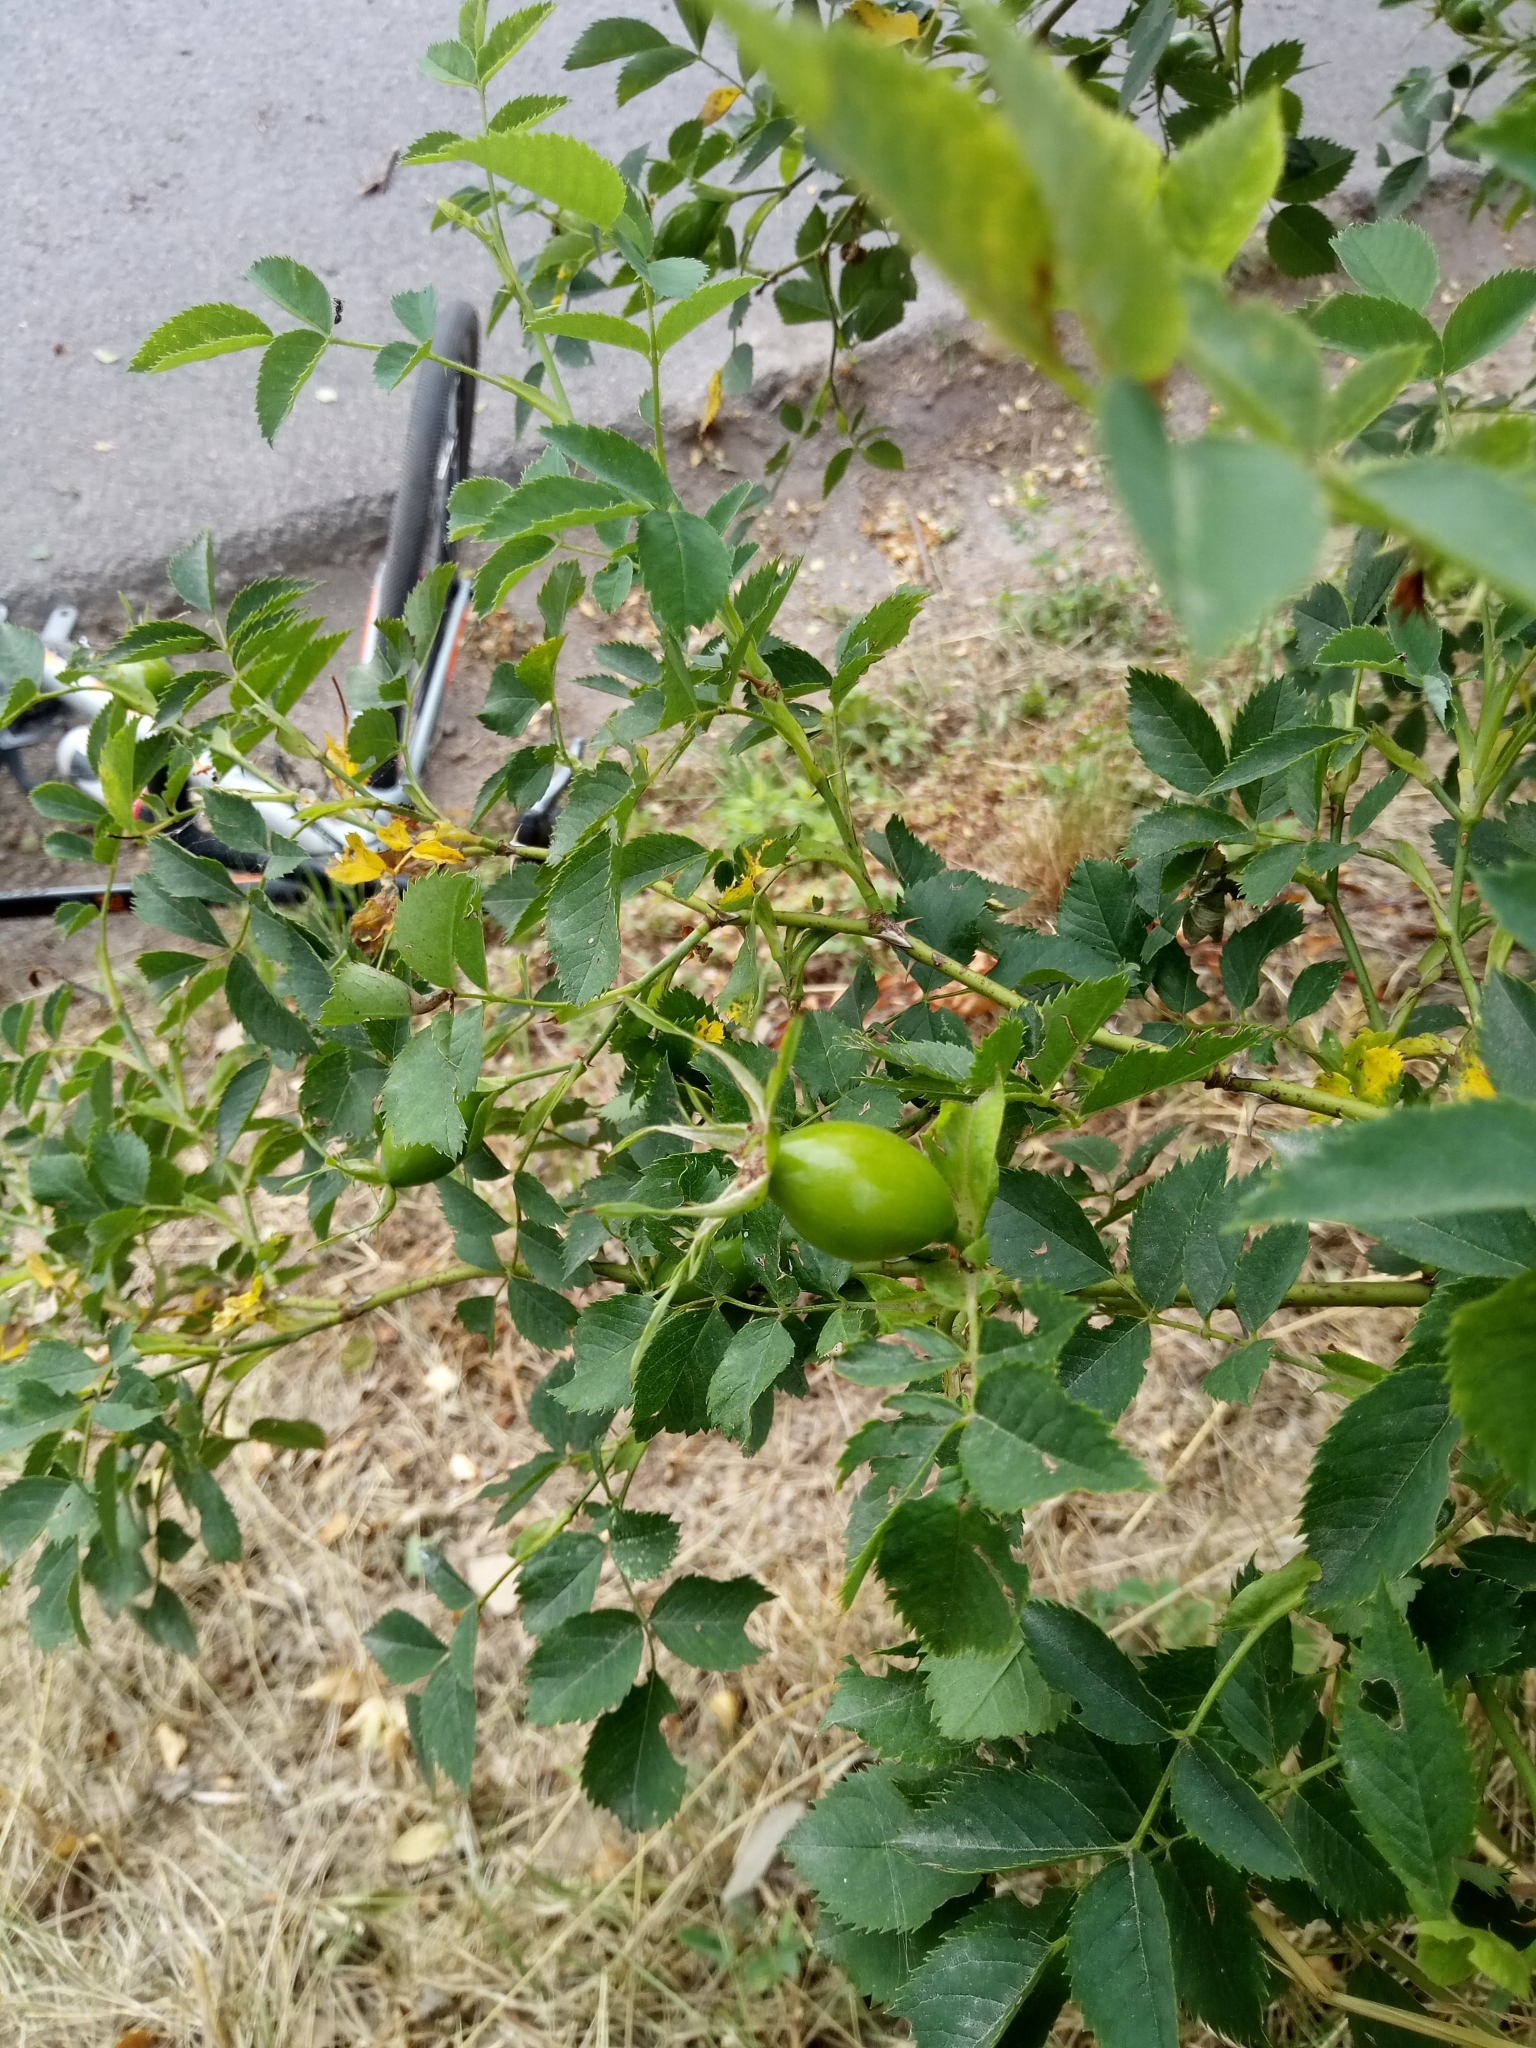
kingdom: Plantae
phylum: Tracheophyta
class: Magnoliopsida
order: Rosales
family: Rosaceae
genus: Rosa
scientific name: Rosa dumalis
